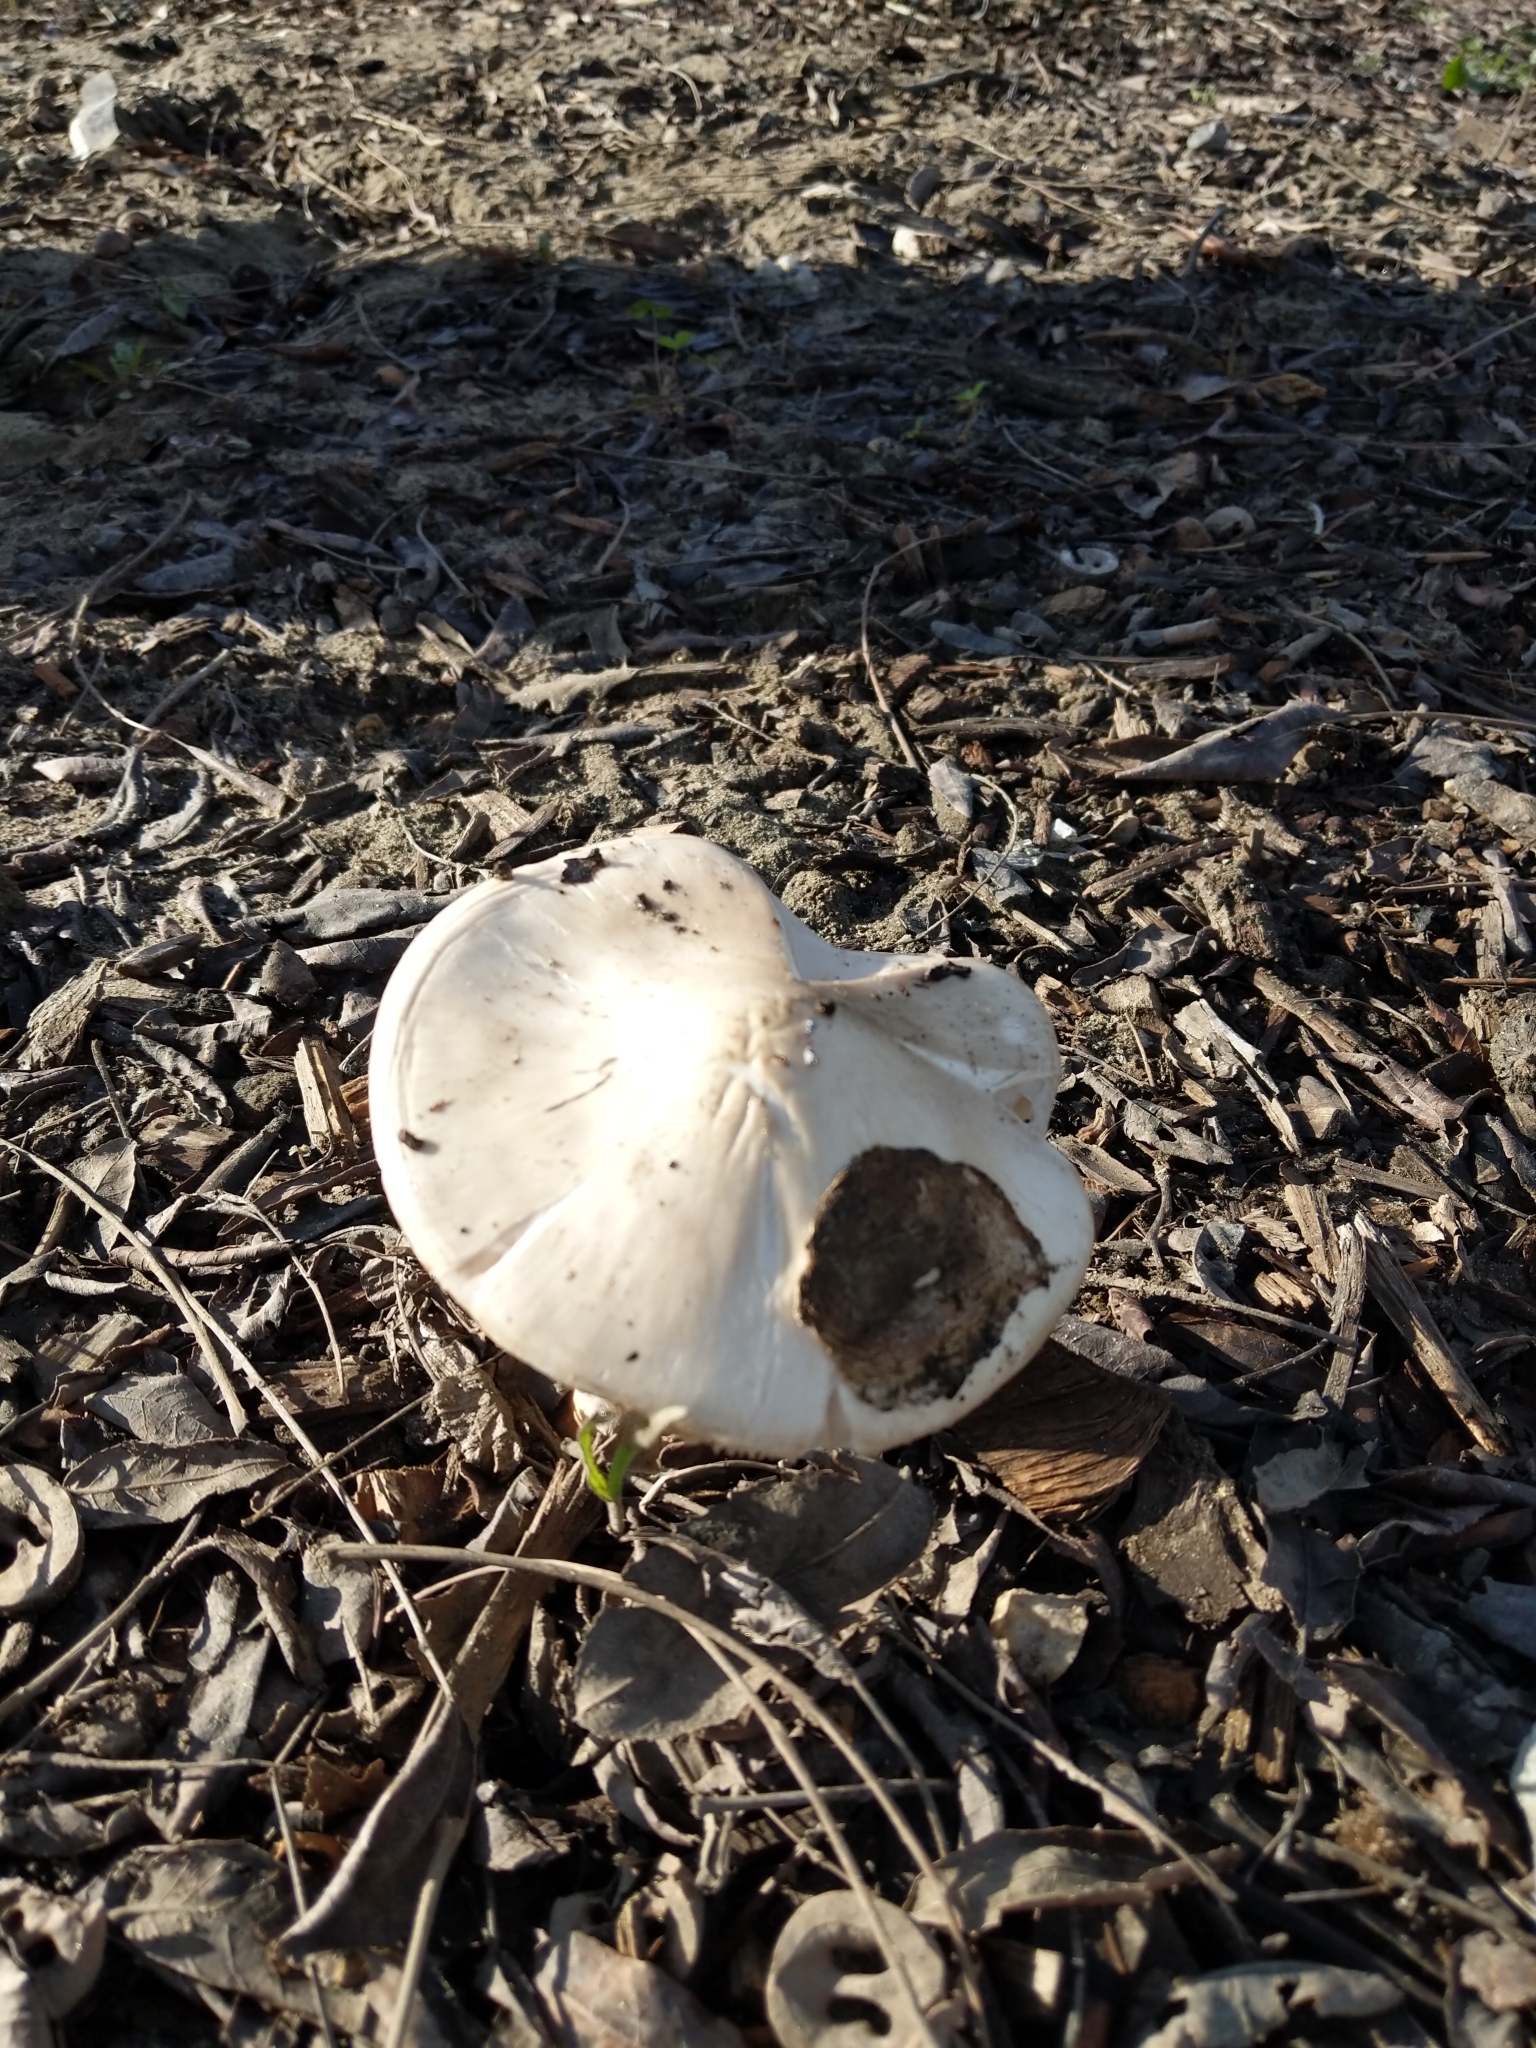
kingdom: Fungi
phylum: Basidiomycota
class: Agaricomycetes
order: Agaricales
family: Pluteaceae
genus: Volvopluteus
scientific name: Volvopluteus gloiocephalus
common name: Stubble rosegill
